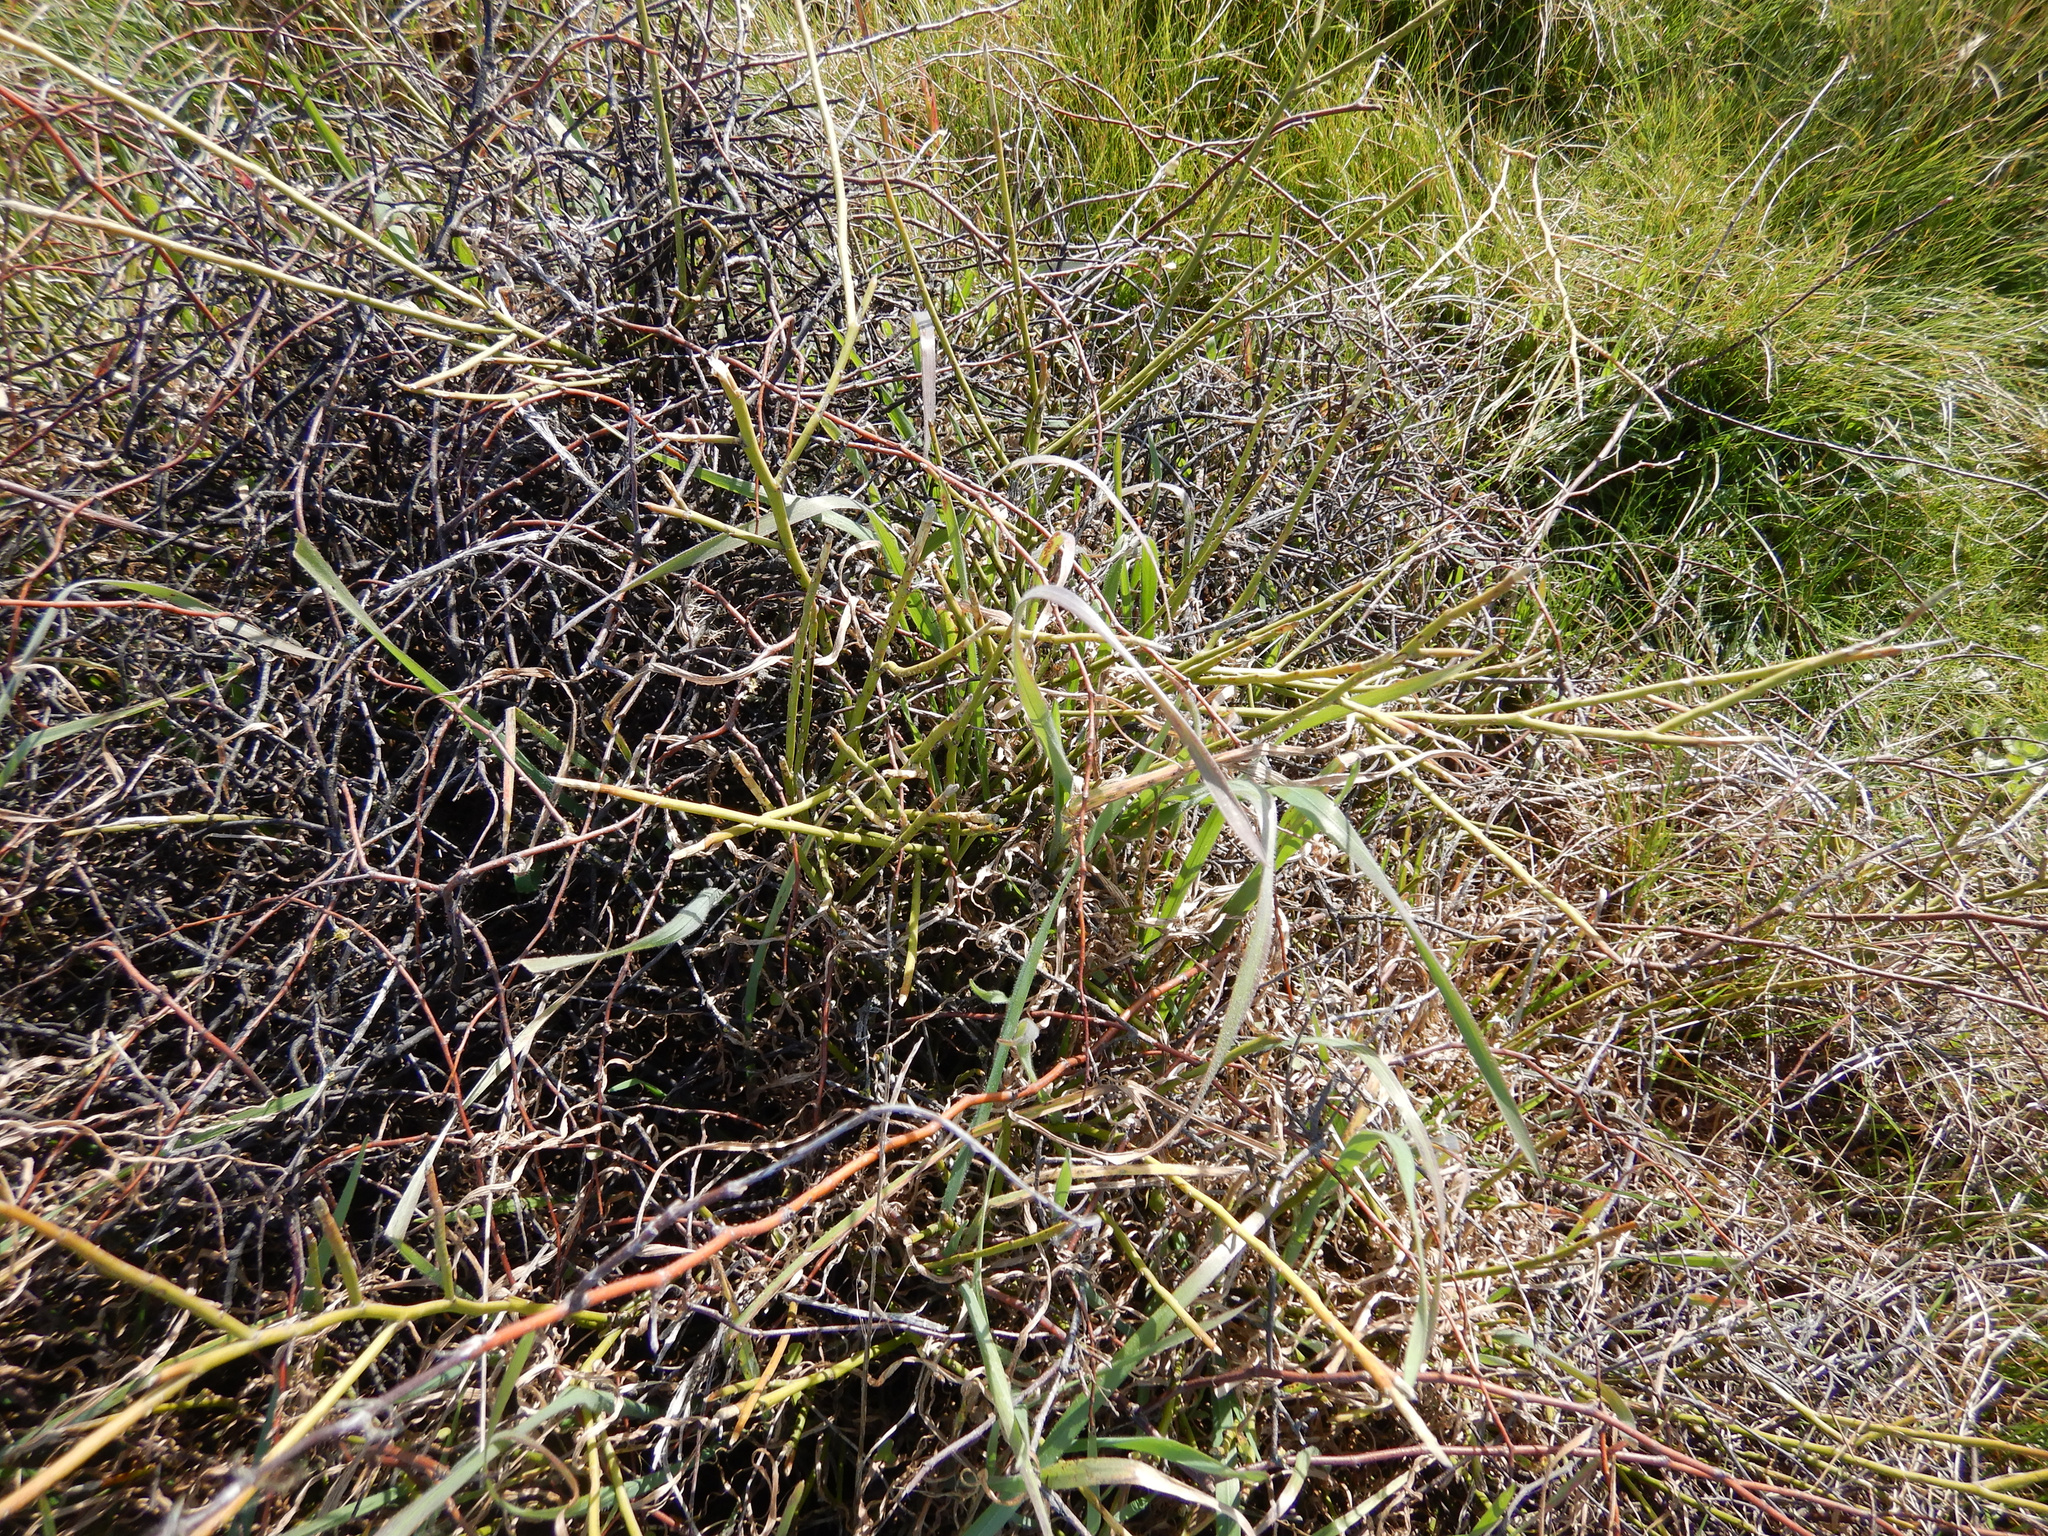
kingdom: Plantae
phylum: Tracheophyta
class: Magnoliopsida
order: Fabales
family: Fabaceae
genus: Carmichaelia
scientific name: Carmichaelia australis
